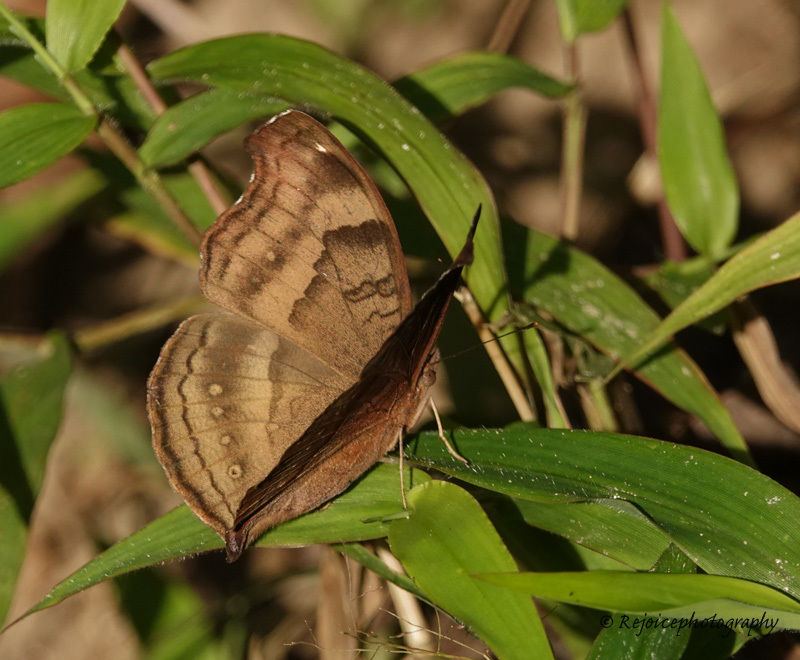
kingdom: Animalia
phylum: Arthropoda
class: Insecta
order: Lepidoptera
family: Nymphalidae
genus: Junonia
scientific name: Junonia iphita
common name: Chocolate pansy
